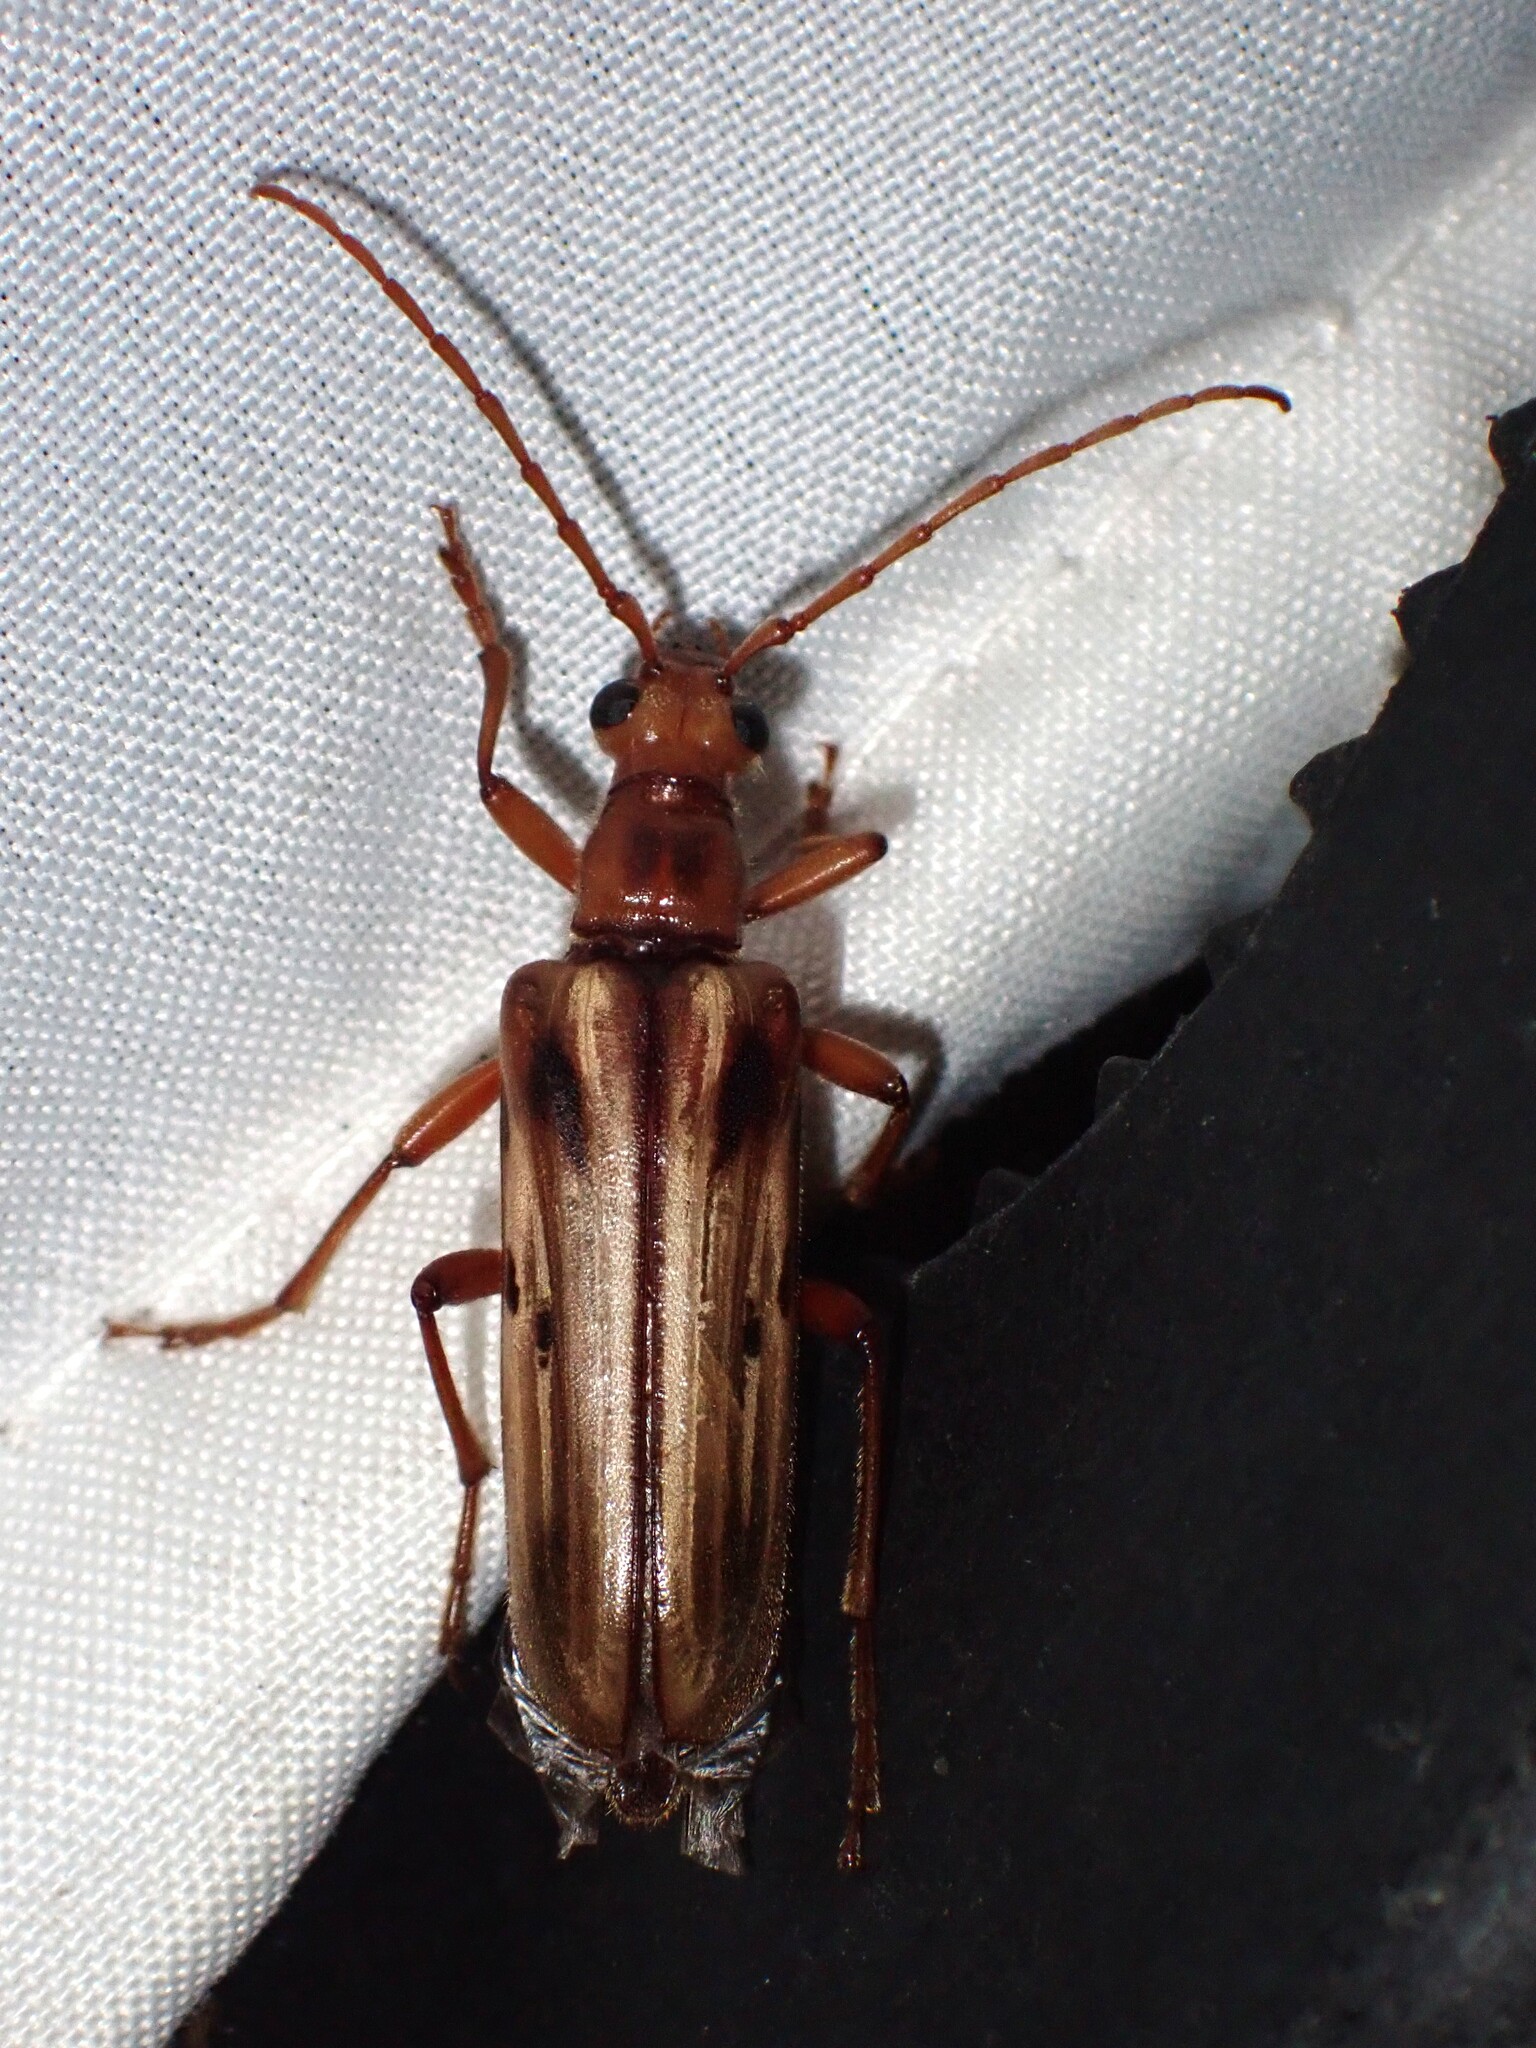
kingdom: Animalia
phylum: Arthropoda
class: Insecta
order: Coleoptera
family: Cerambycidae
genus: Ortholeptura
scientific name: Ortholeptura valida
